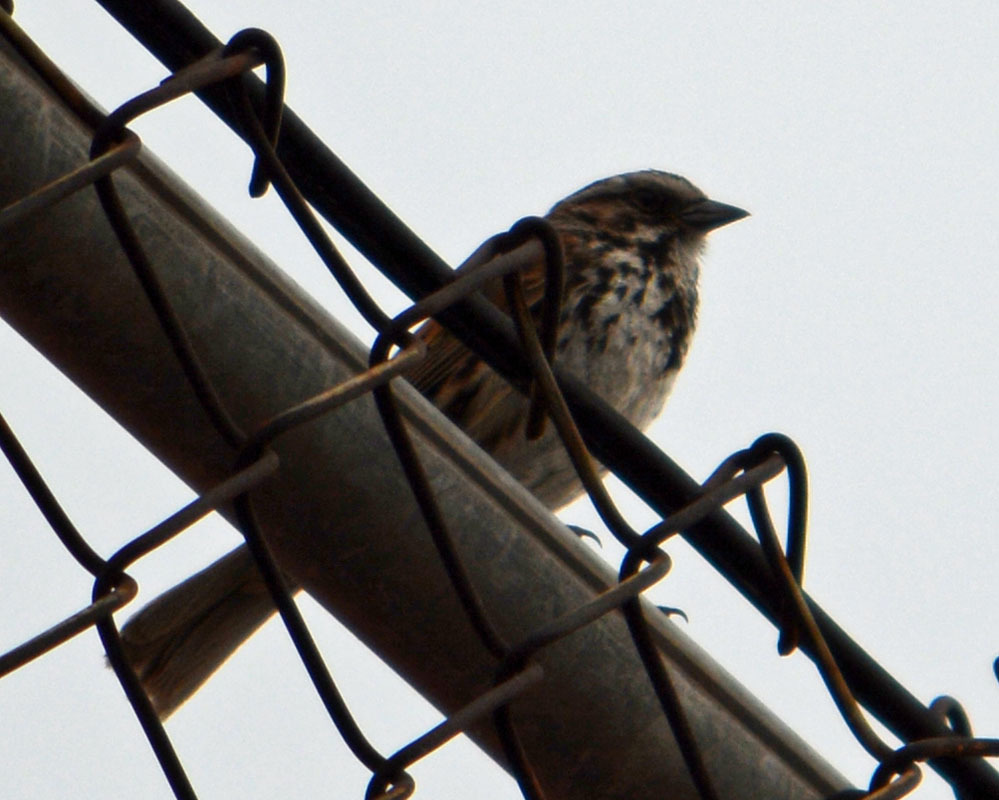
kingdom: Animalia
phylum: Chordata
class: Aves
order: Passeriformes
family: Passerellidae
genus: Melospiza
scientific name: Melospiza melodia
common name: Song sparrow
